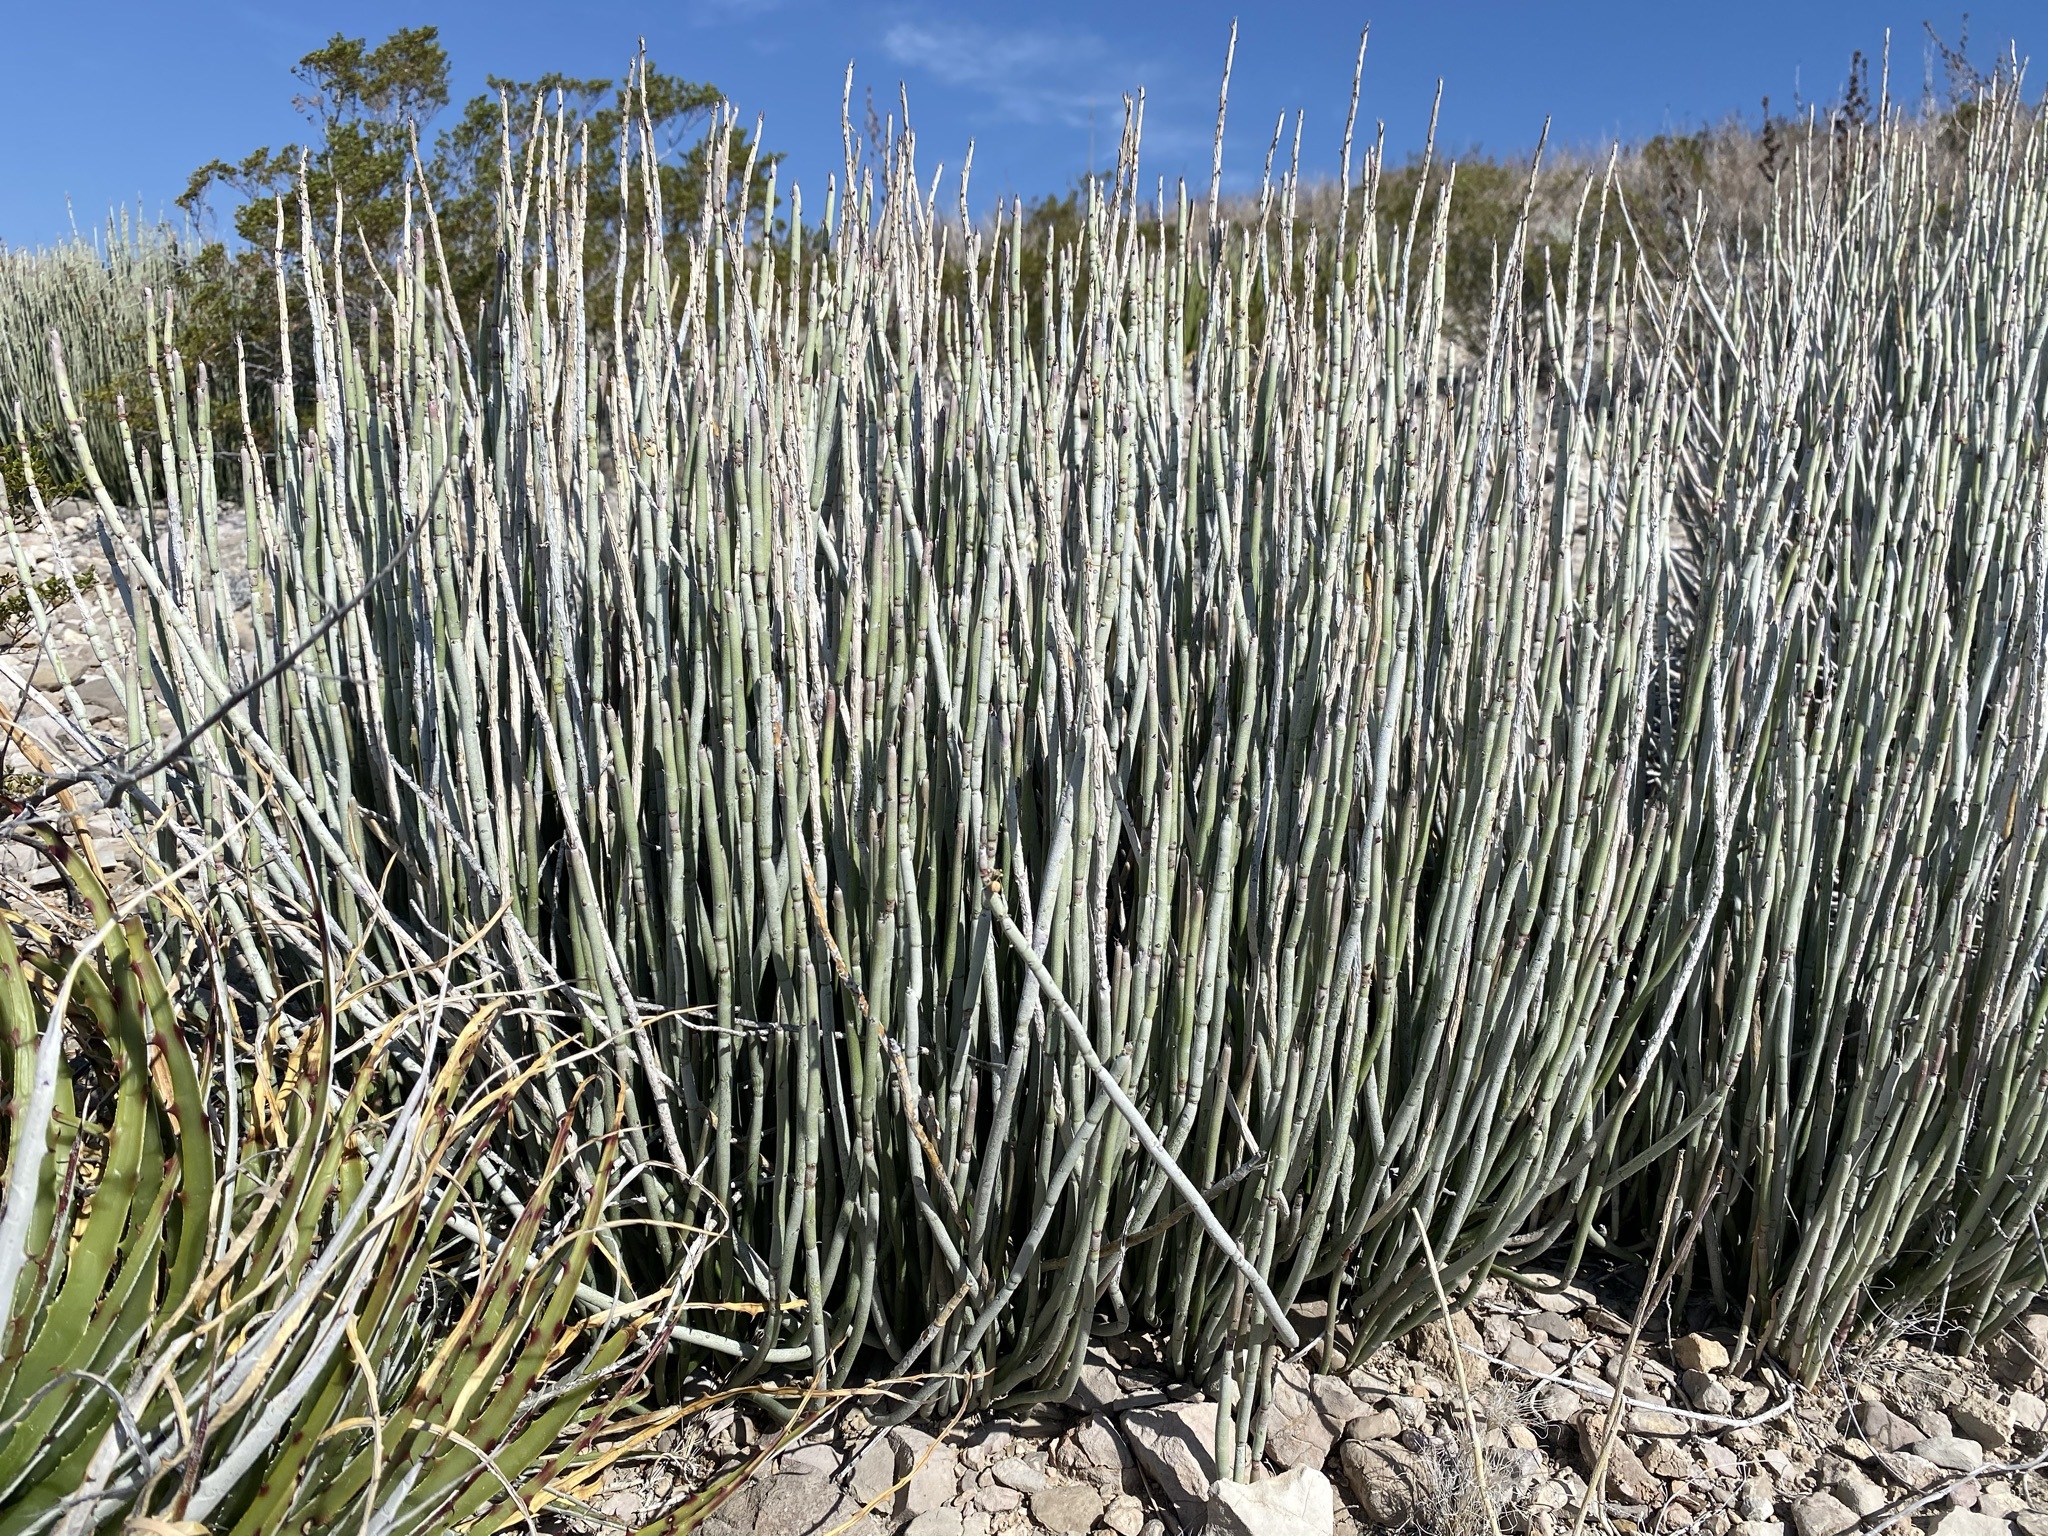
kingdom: Plantae
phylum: Tracheophyta
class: Magnoliopsida
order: Malpighiales
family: Euphorbiaceae
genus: Euphorbia
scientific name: Euphorbia antisyphilitica
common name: Candelilla
